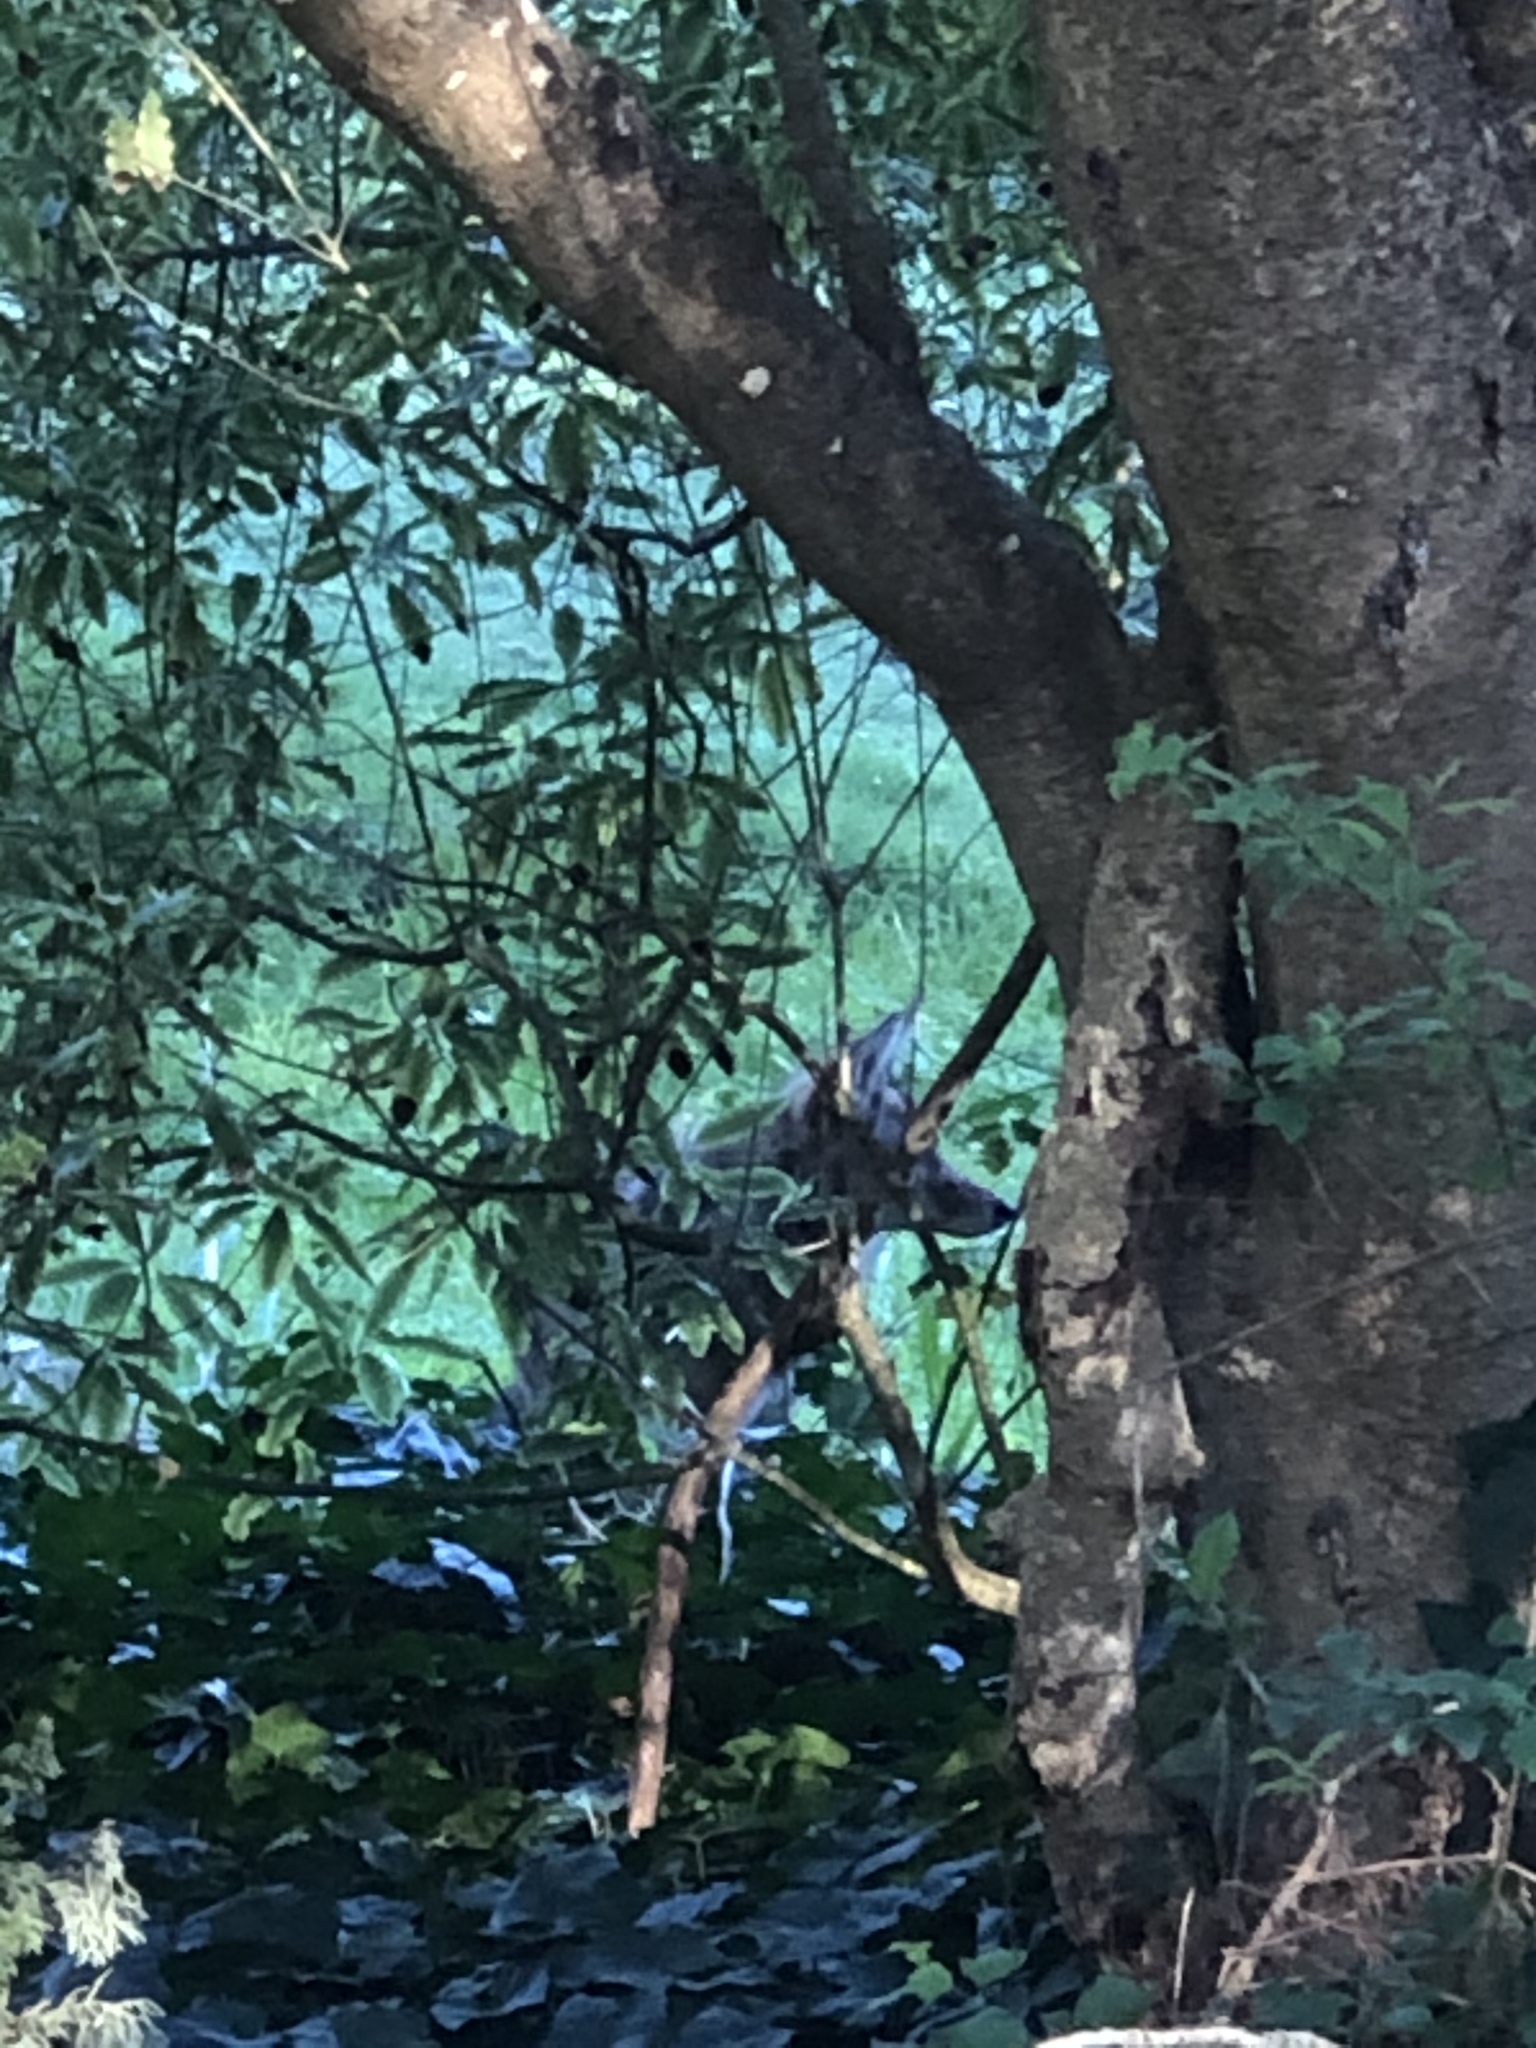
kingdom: Animalia
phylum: Chordata
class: Mammalia
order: Carnivora
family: Canidae
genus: Canis
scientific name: Canis latrans
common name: Coyote
